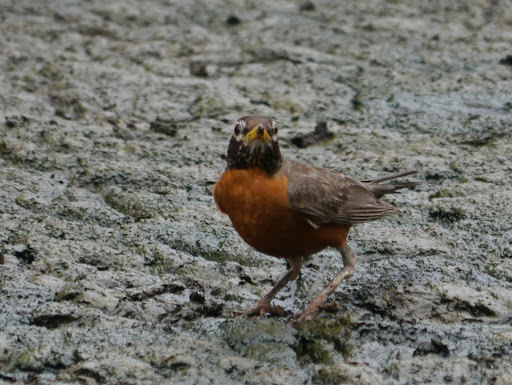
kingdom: Animalia
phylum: Chordata
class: Aves
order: Passeriformes
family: Turdidae
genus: Turdus
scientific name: Turdus migratorius
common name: American robin
